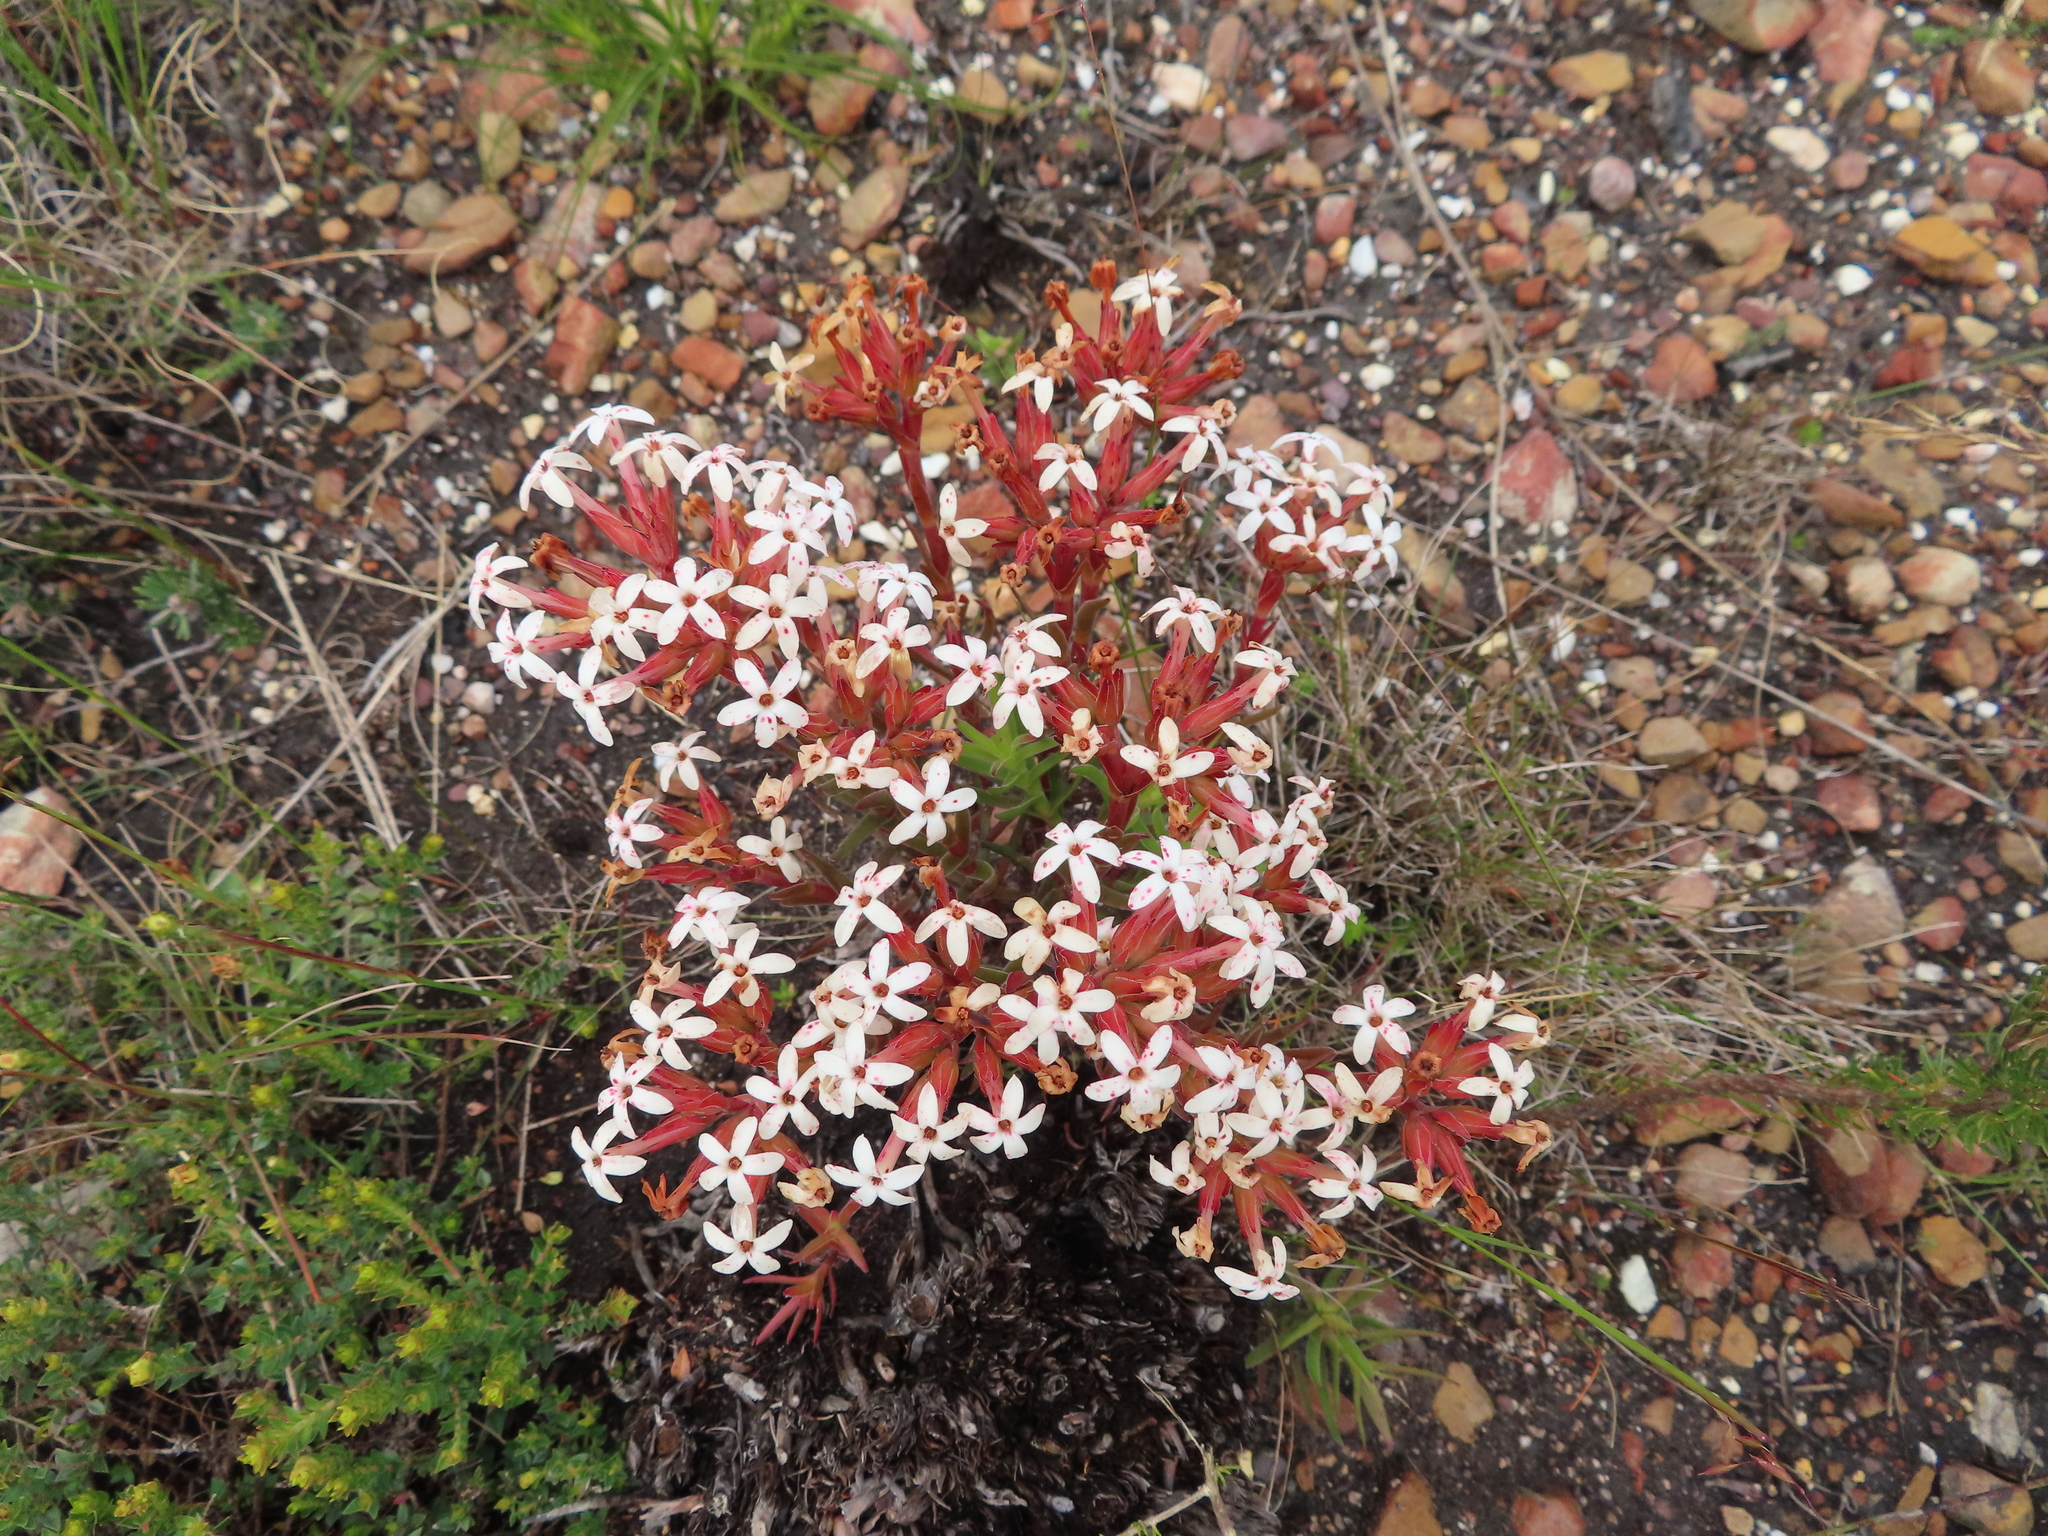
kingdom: Plantae
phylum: Tracheophyta
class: Magnoliopsida
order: Saxifragales
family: Crassulaceae
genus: Crassula
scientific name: Crassula fascicularis
